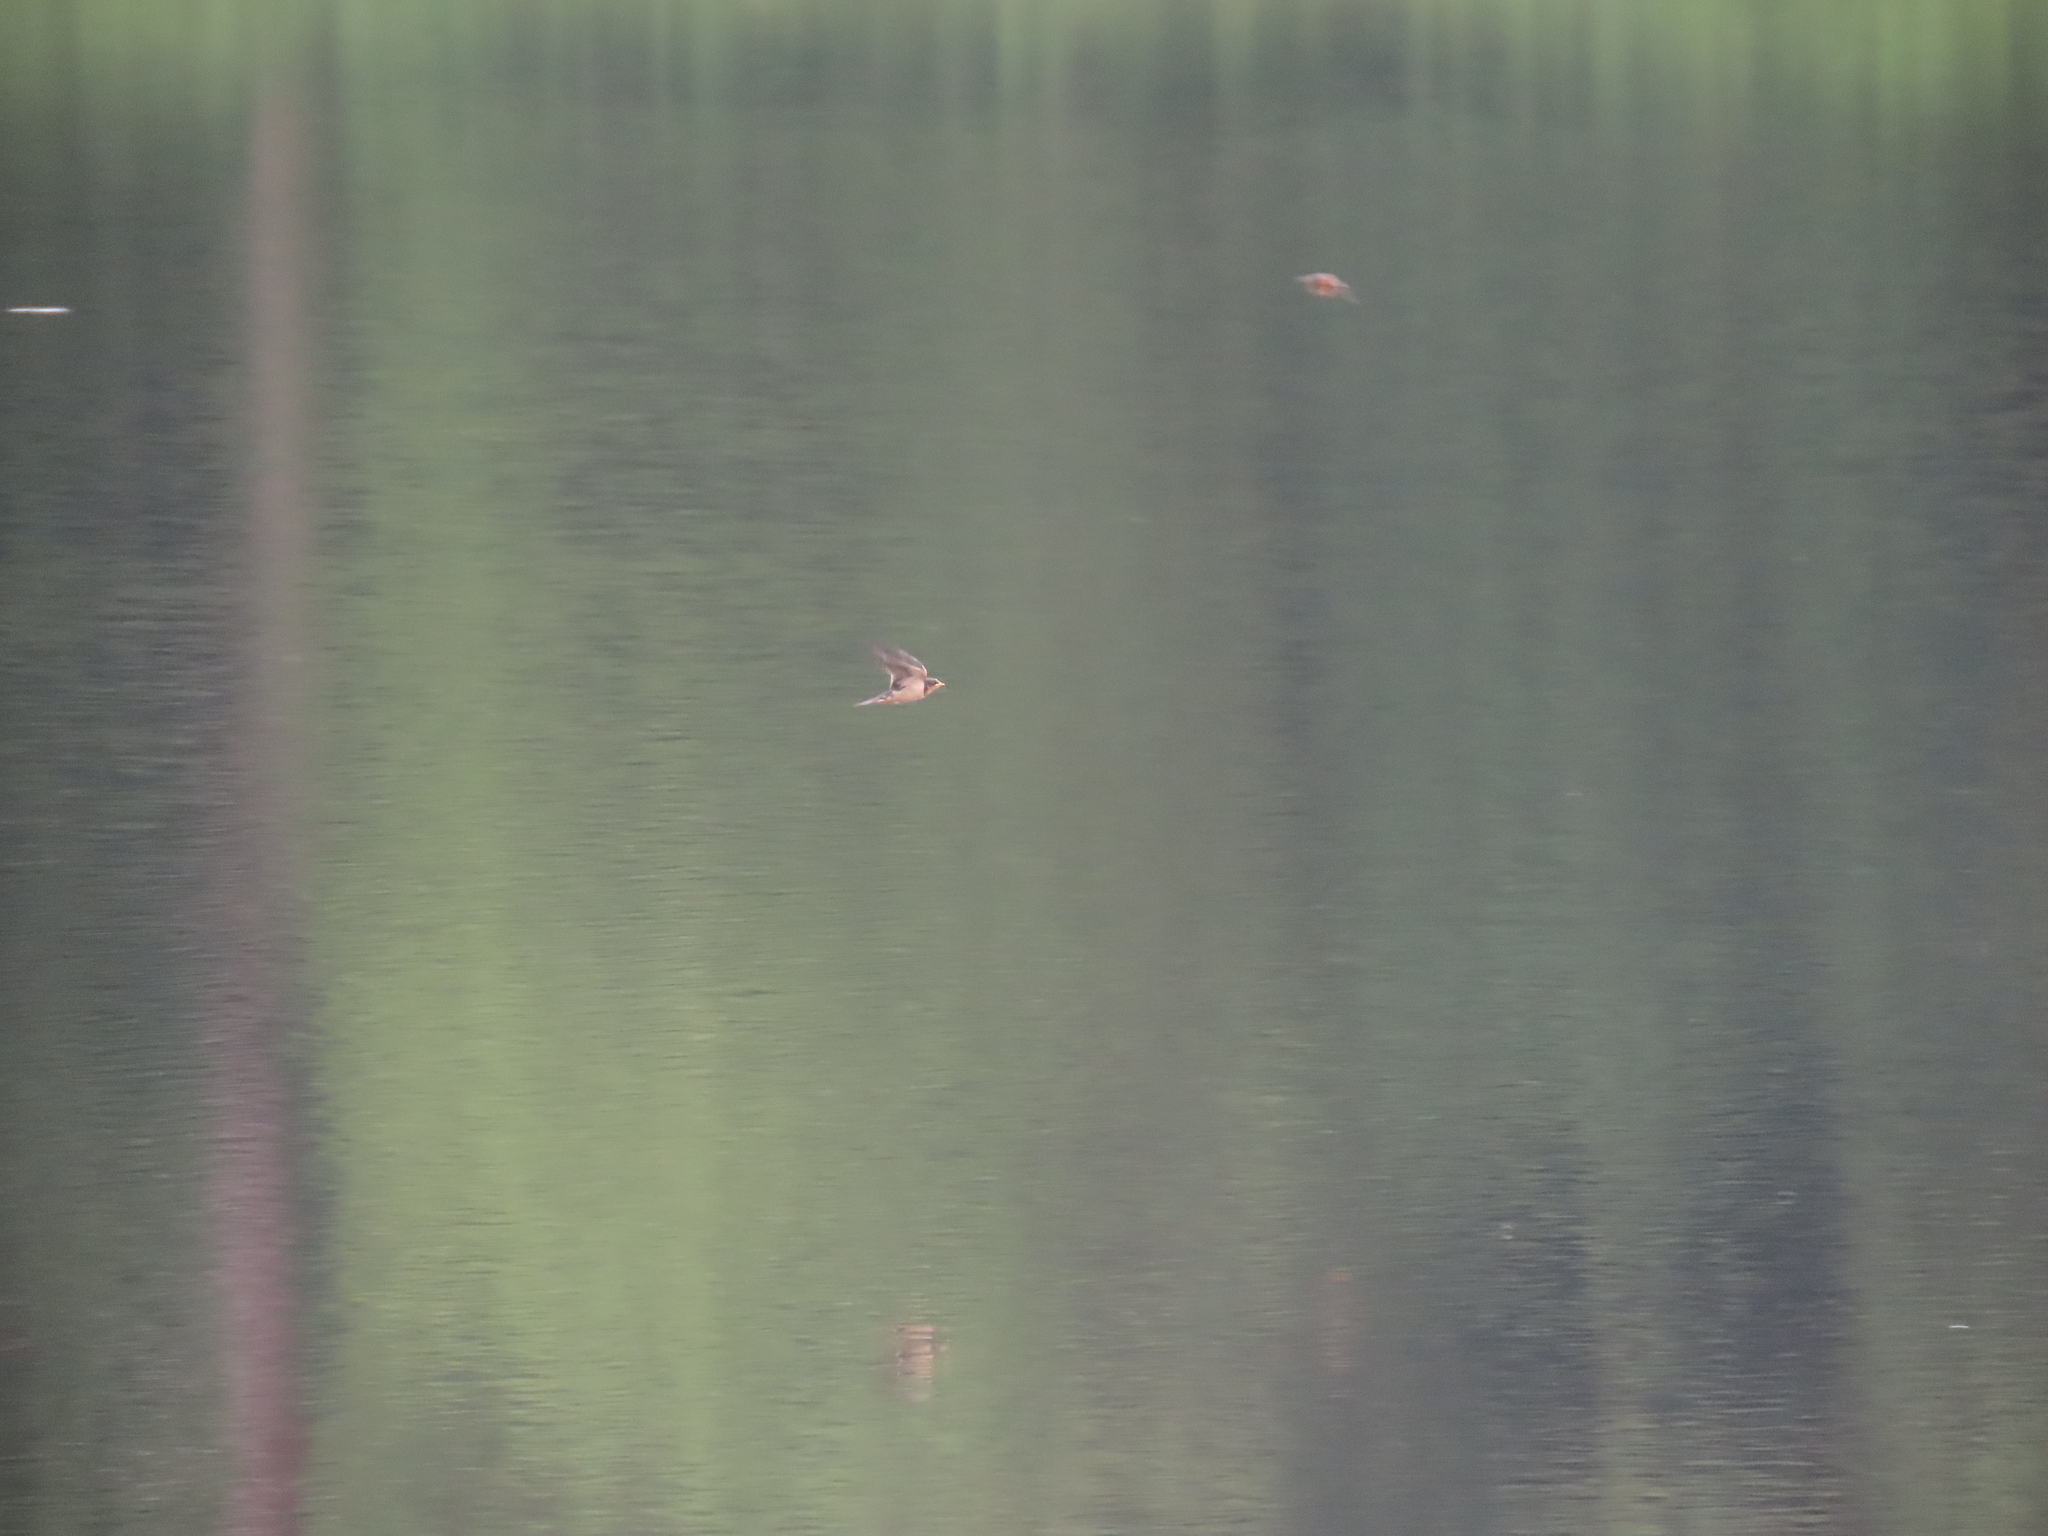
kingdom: Animalia
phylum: Chordata
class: Aves
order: Passeriformes
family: Hirundinidae
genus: Hirundo
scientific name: Hirundo rustica
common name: Barn swallow
